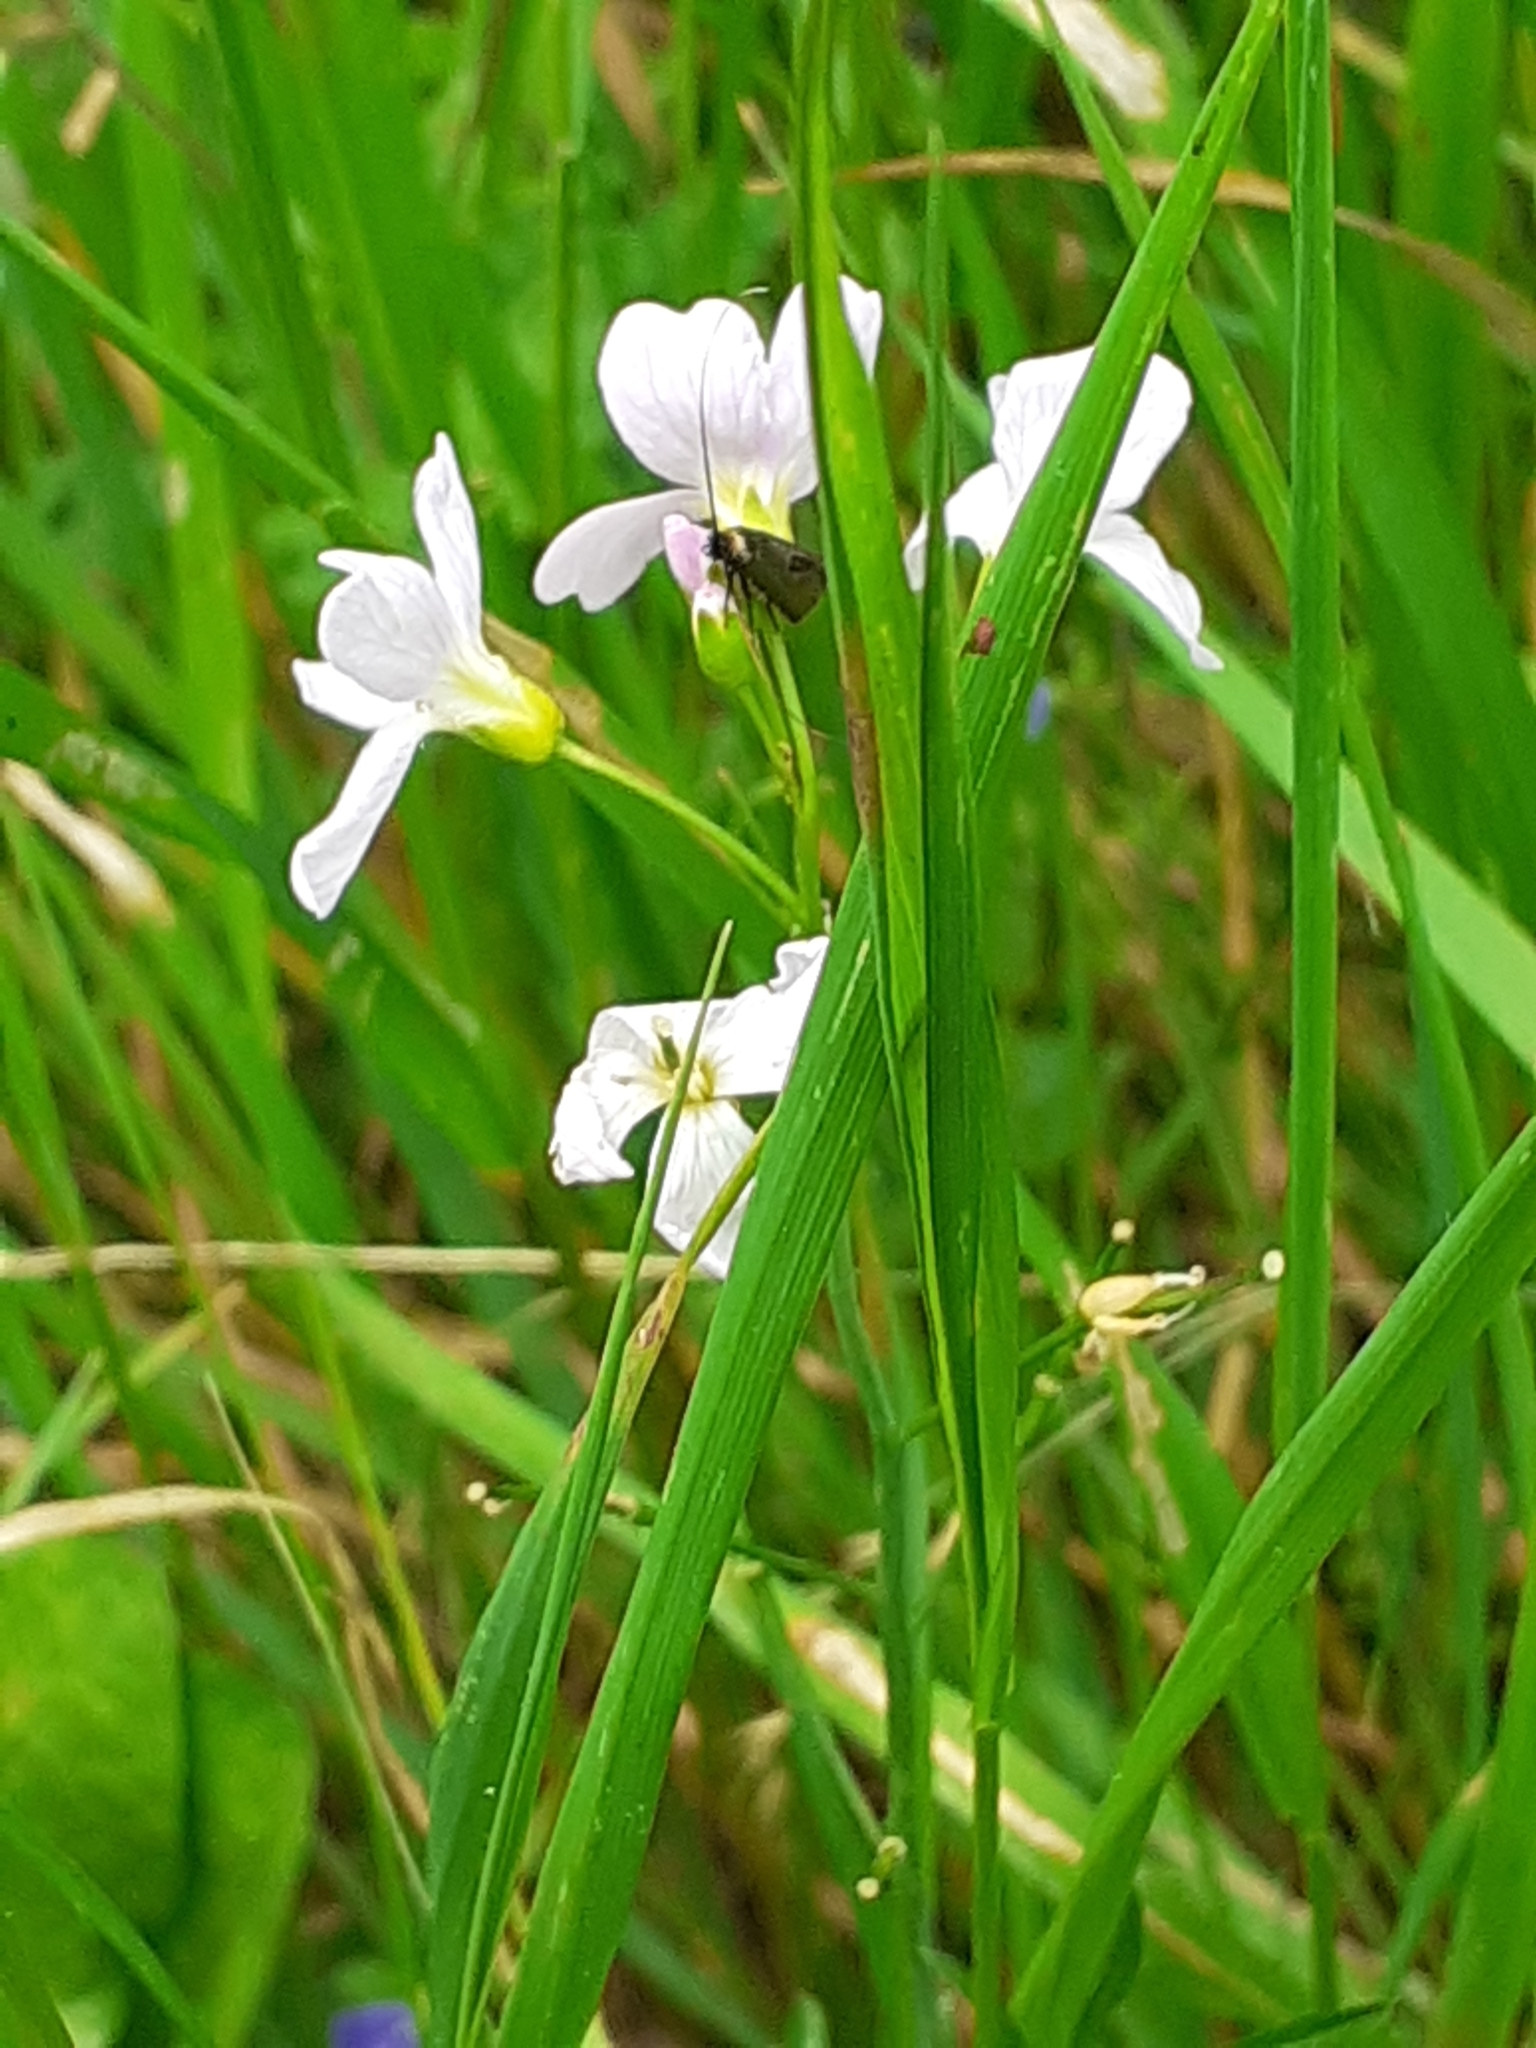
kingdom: Plantae
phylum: Tracheophyta
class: Magnoliopsida
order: Brassicales
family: Brassicaceae
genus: Cardamine
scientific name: Cardamine pratensis
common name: Cuckoo flower
